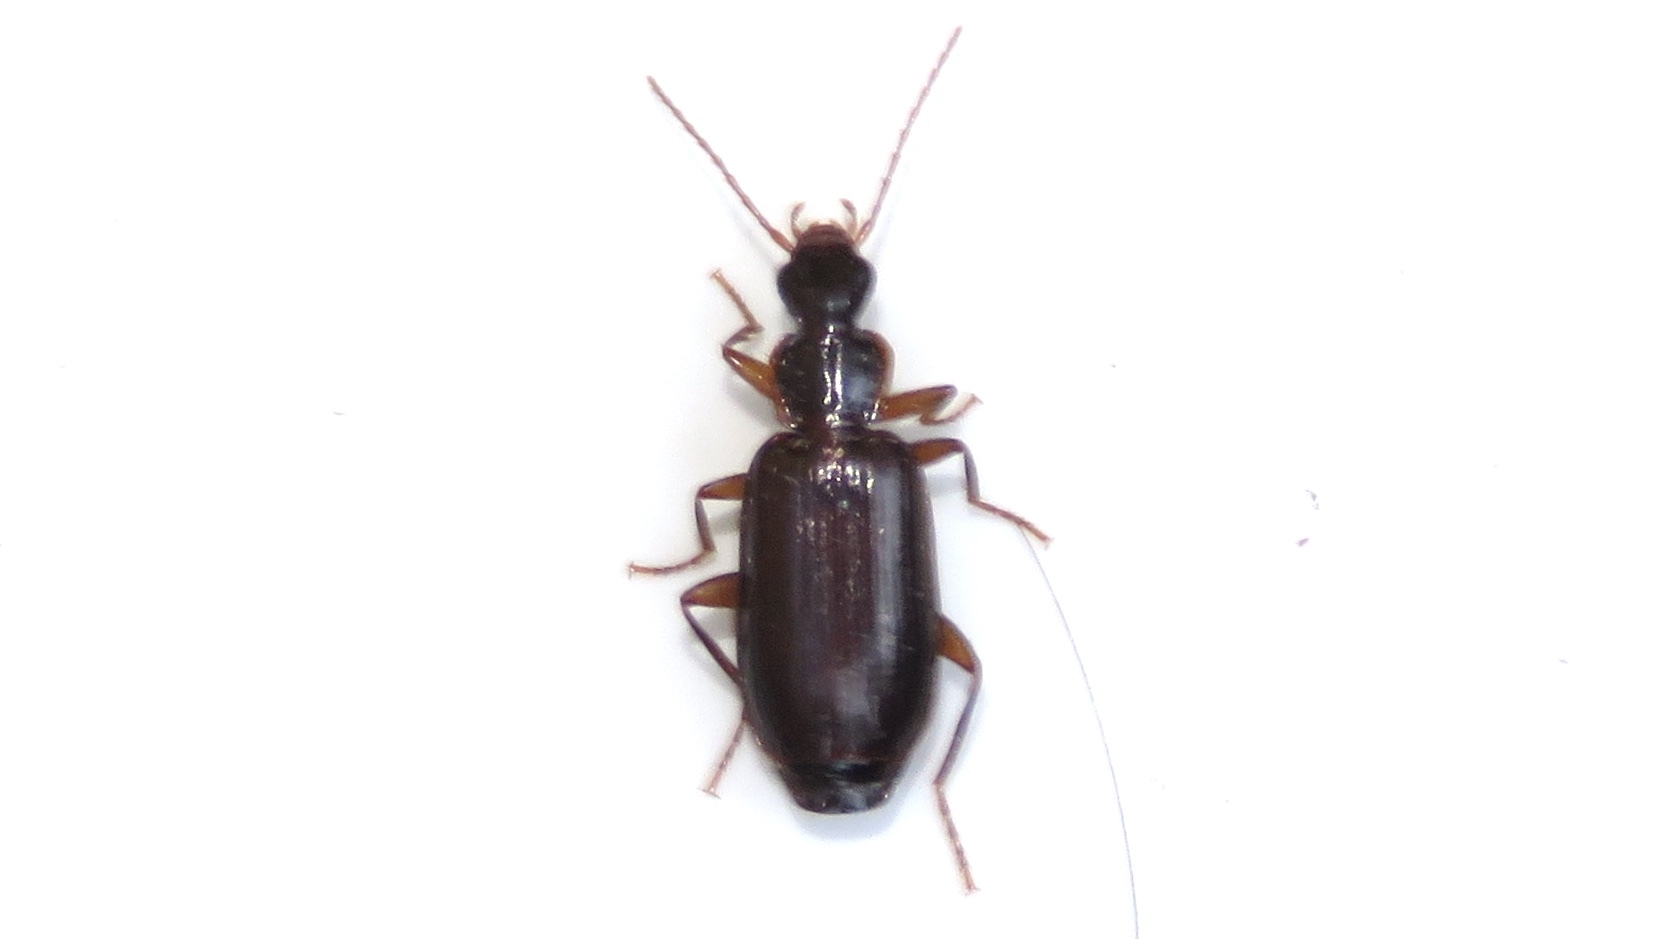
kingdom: Animalia
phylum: Arthropoda
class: Insecta
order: Coleoptera
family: Carabidae
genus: Dromius
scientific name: Dromius piceus
